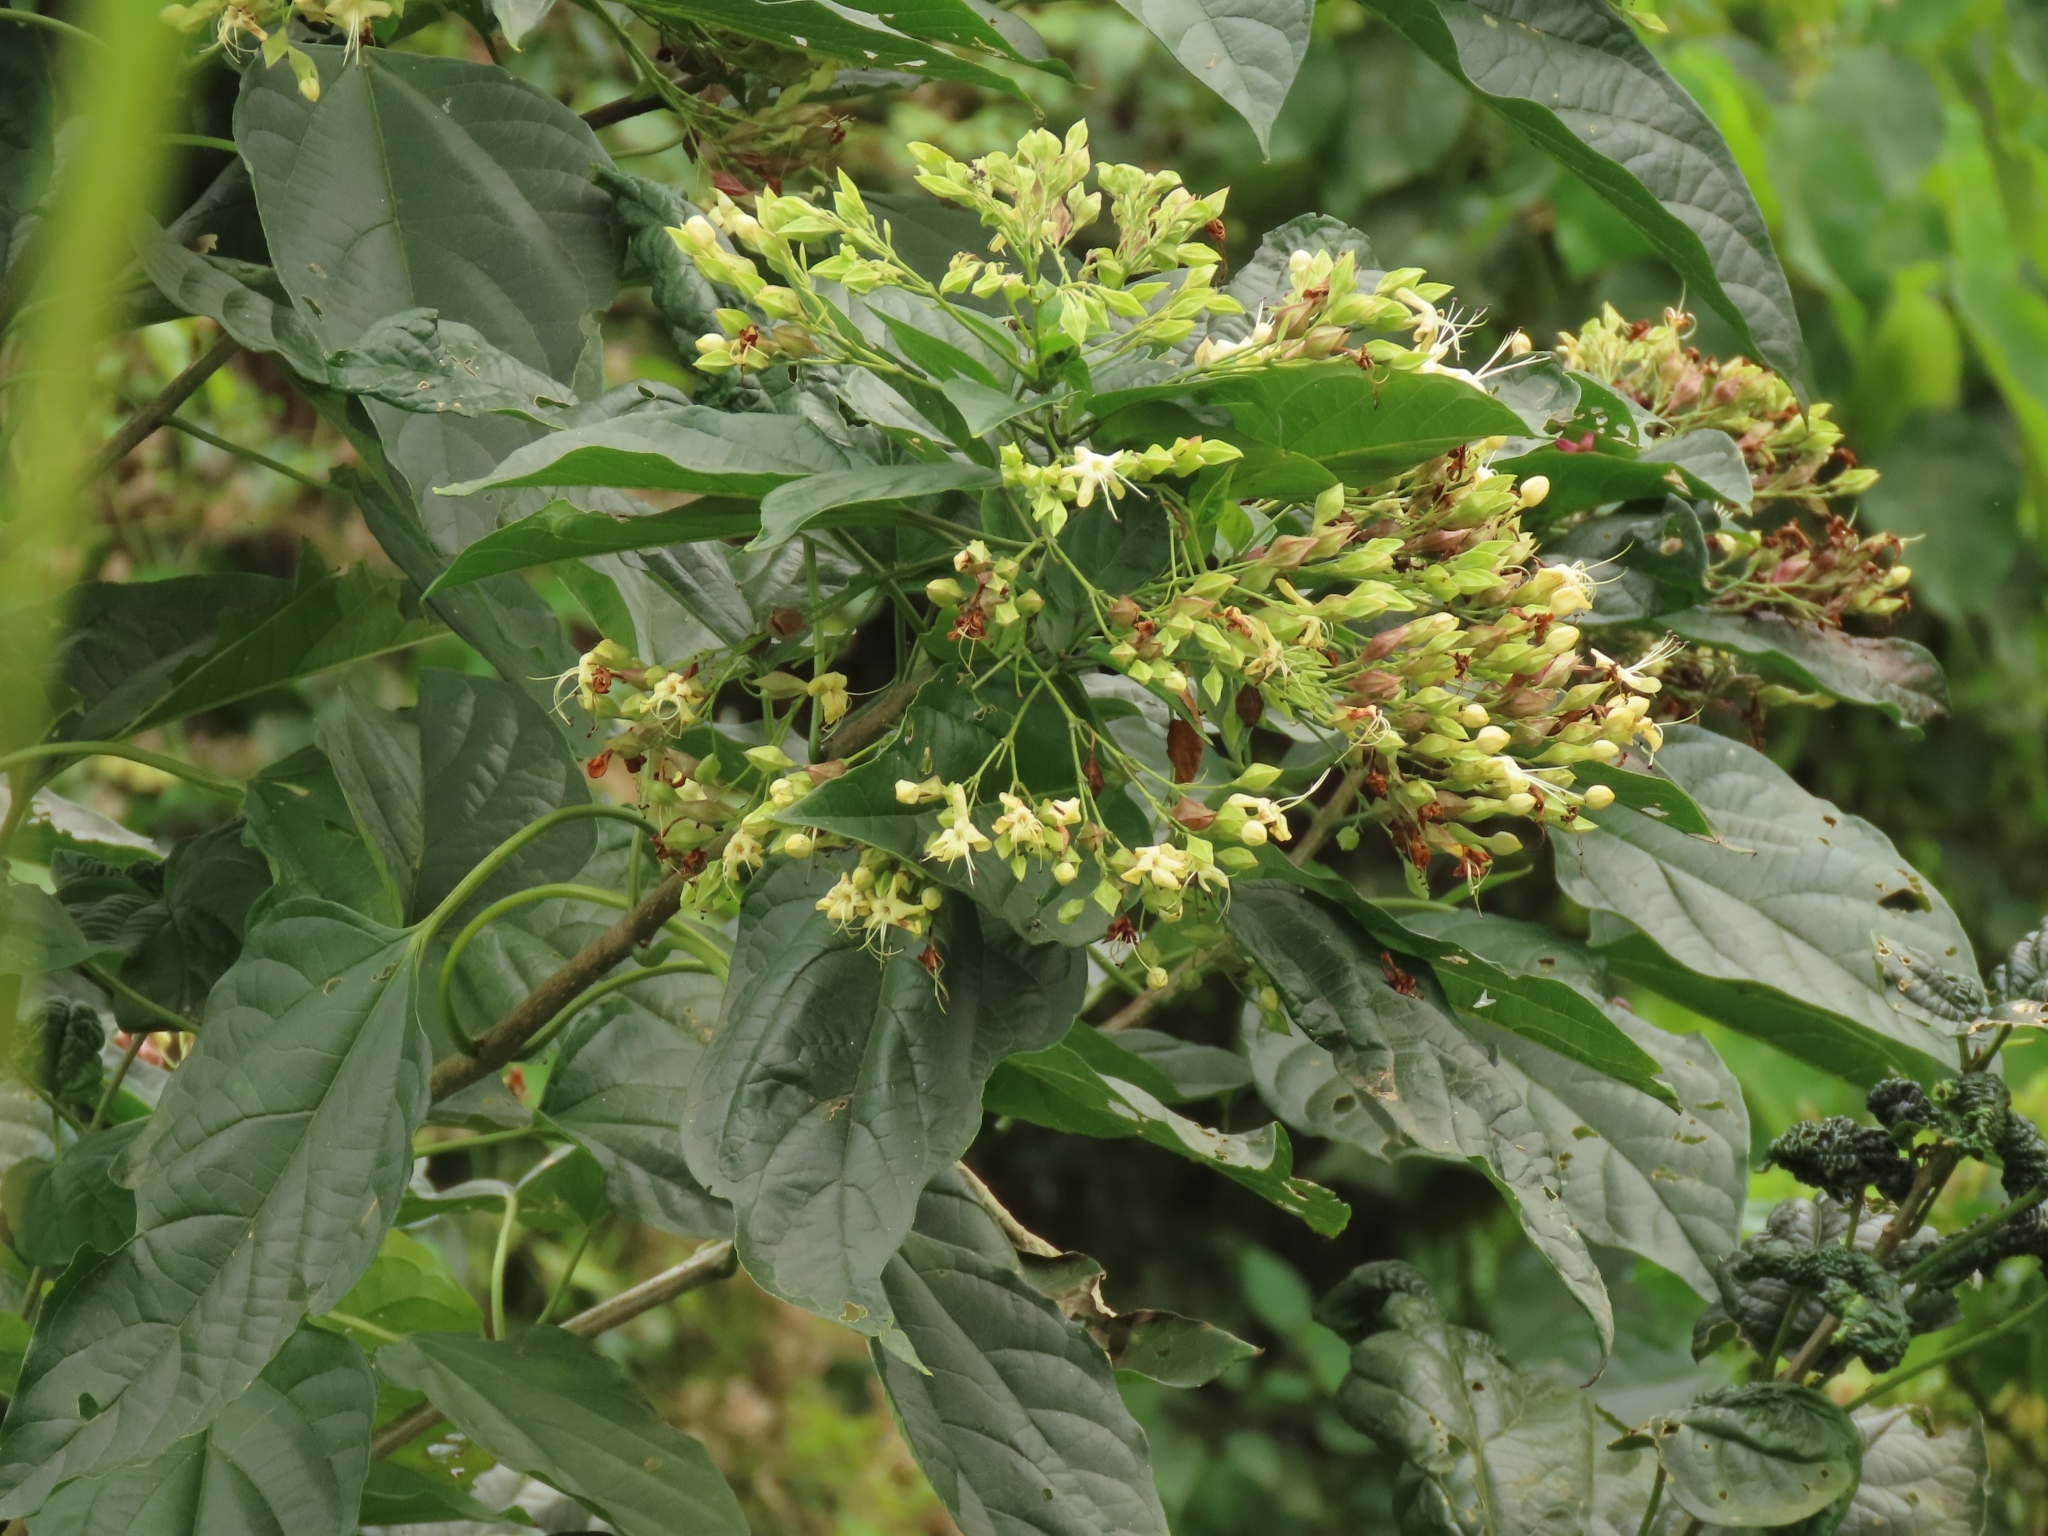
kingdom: Plantae
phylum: Tracheophyta
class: Magnoliopsida
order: Lamiales
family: Lamiaceae
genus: Clerodendrum
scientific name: Clerodendrum trichotomum
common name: Harlequin glorybower
